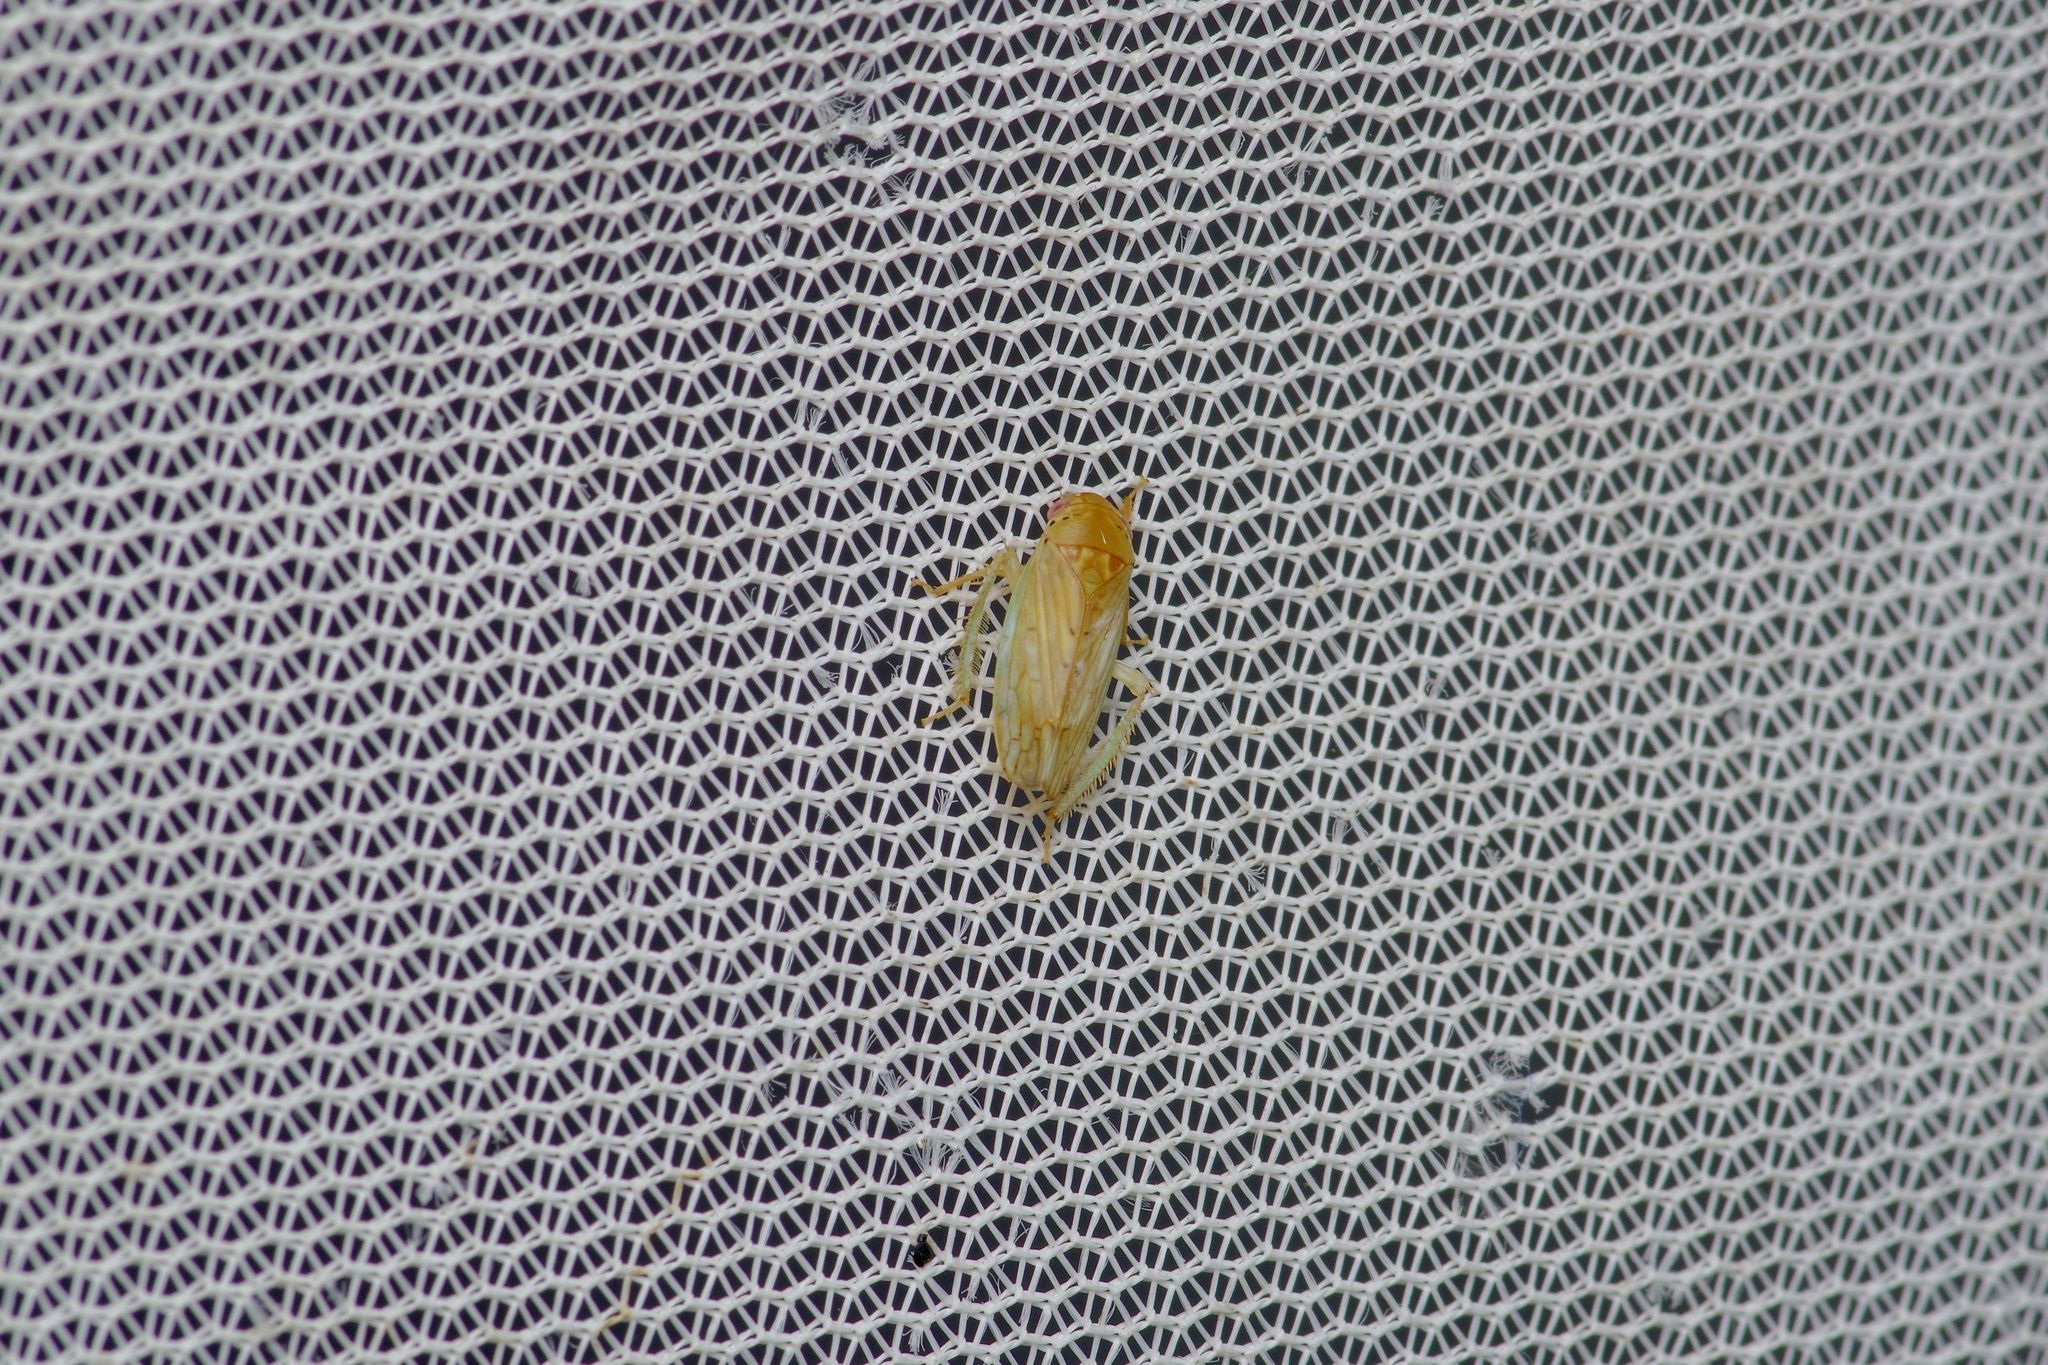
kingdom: Animalia
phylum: Arthropoda
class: Insecta
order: Hemiptera
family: Cicadellidae
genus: Polana
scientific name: Polana quadrinotata
